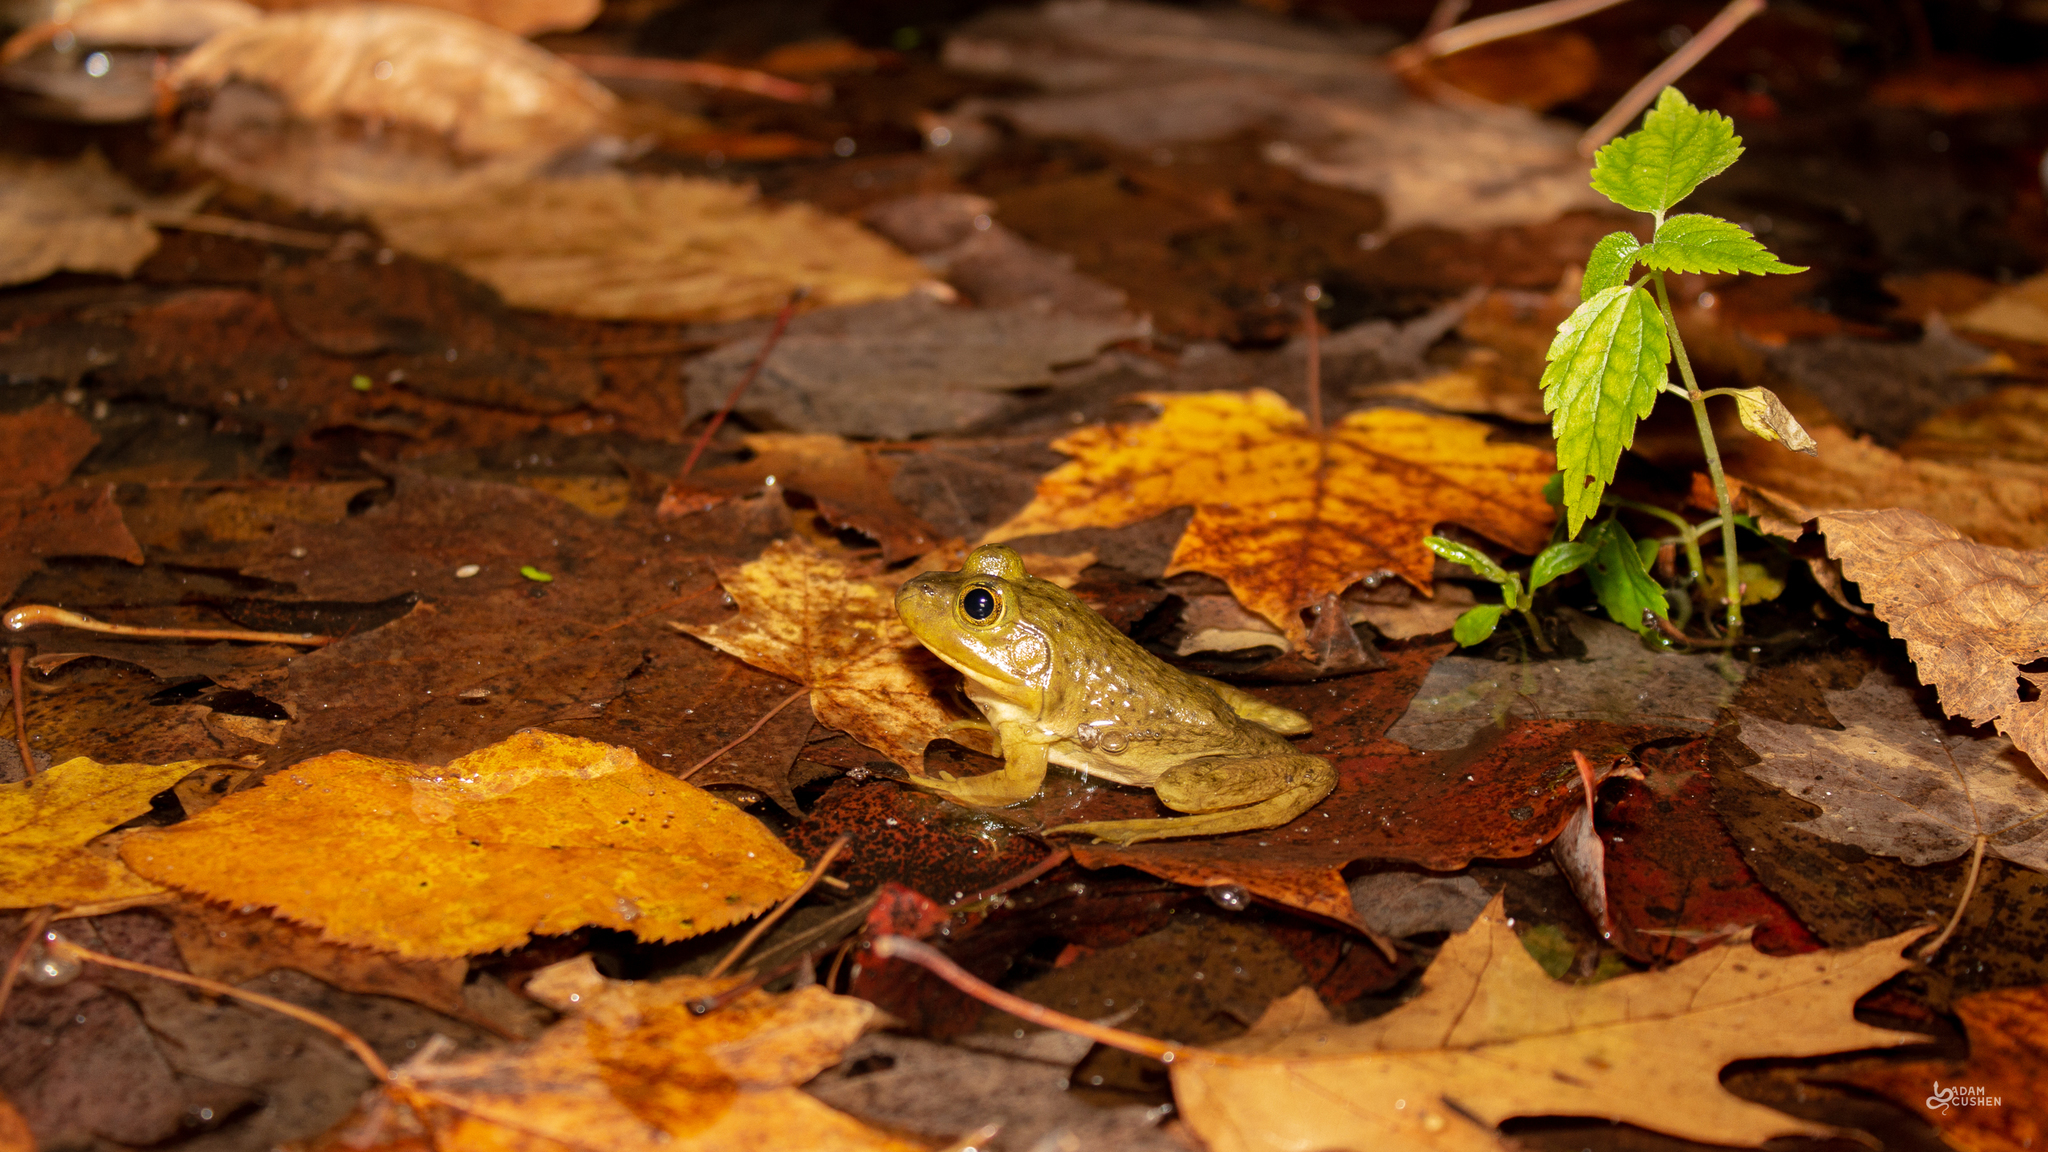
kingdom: Animalia
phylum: Chordata
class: Amphibia
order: Anura
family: Ranidae
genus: Lithobates
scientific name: Lithobates catesbeianus
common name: American bullfrog
